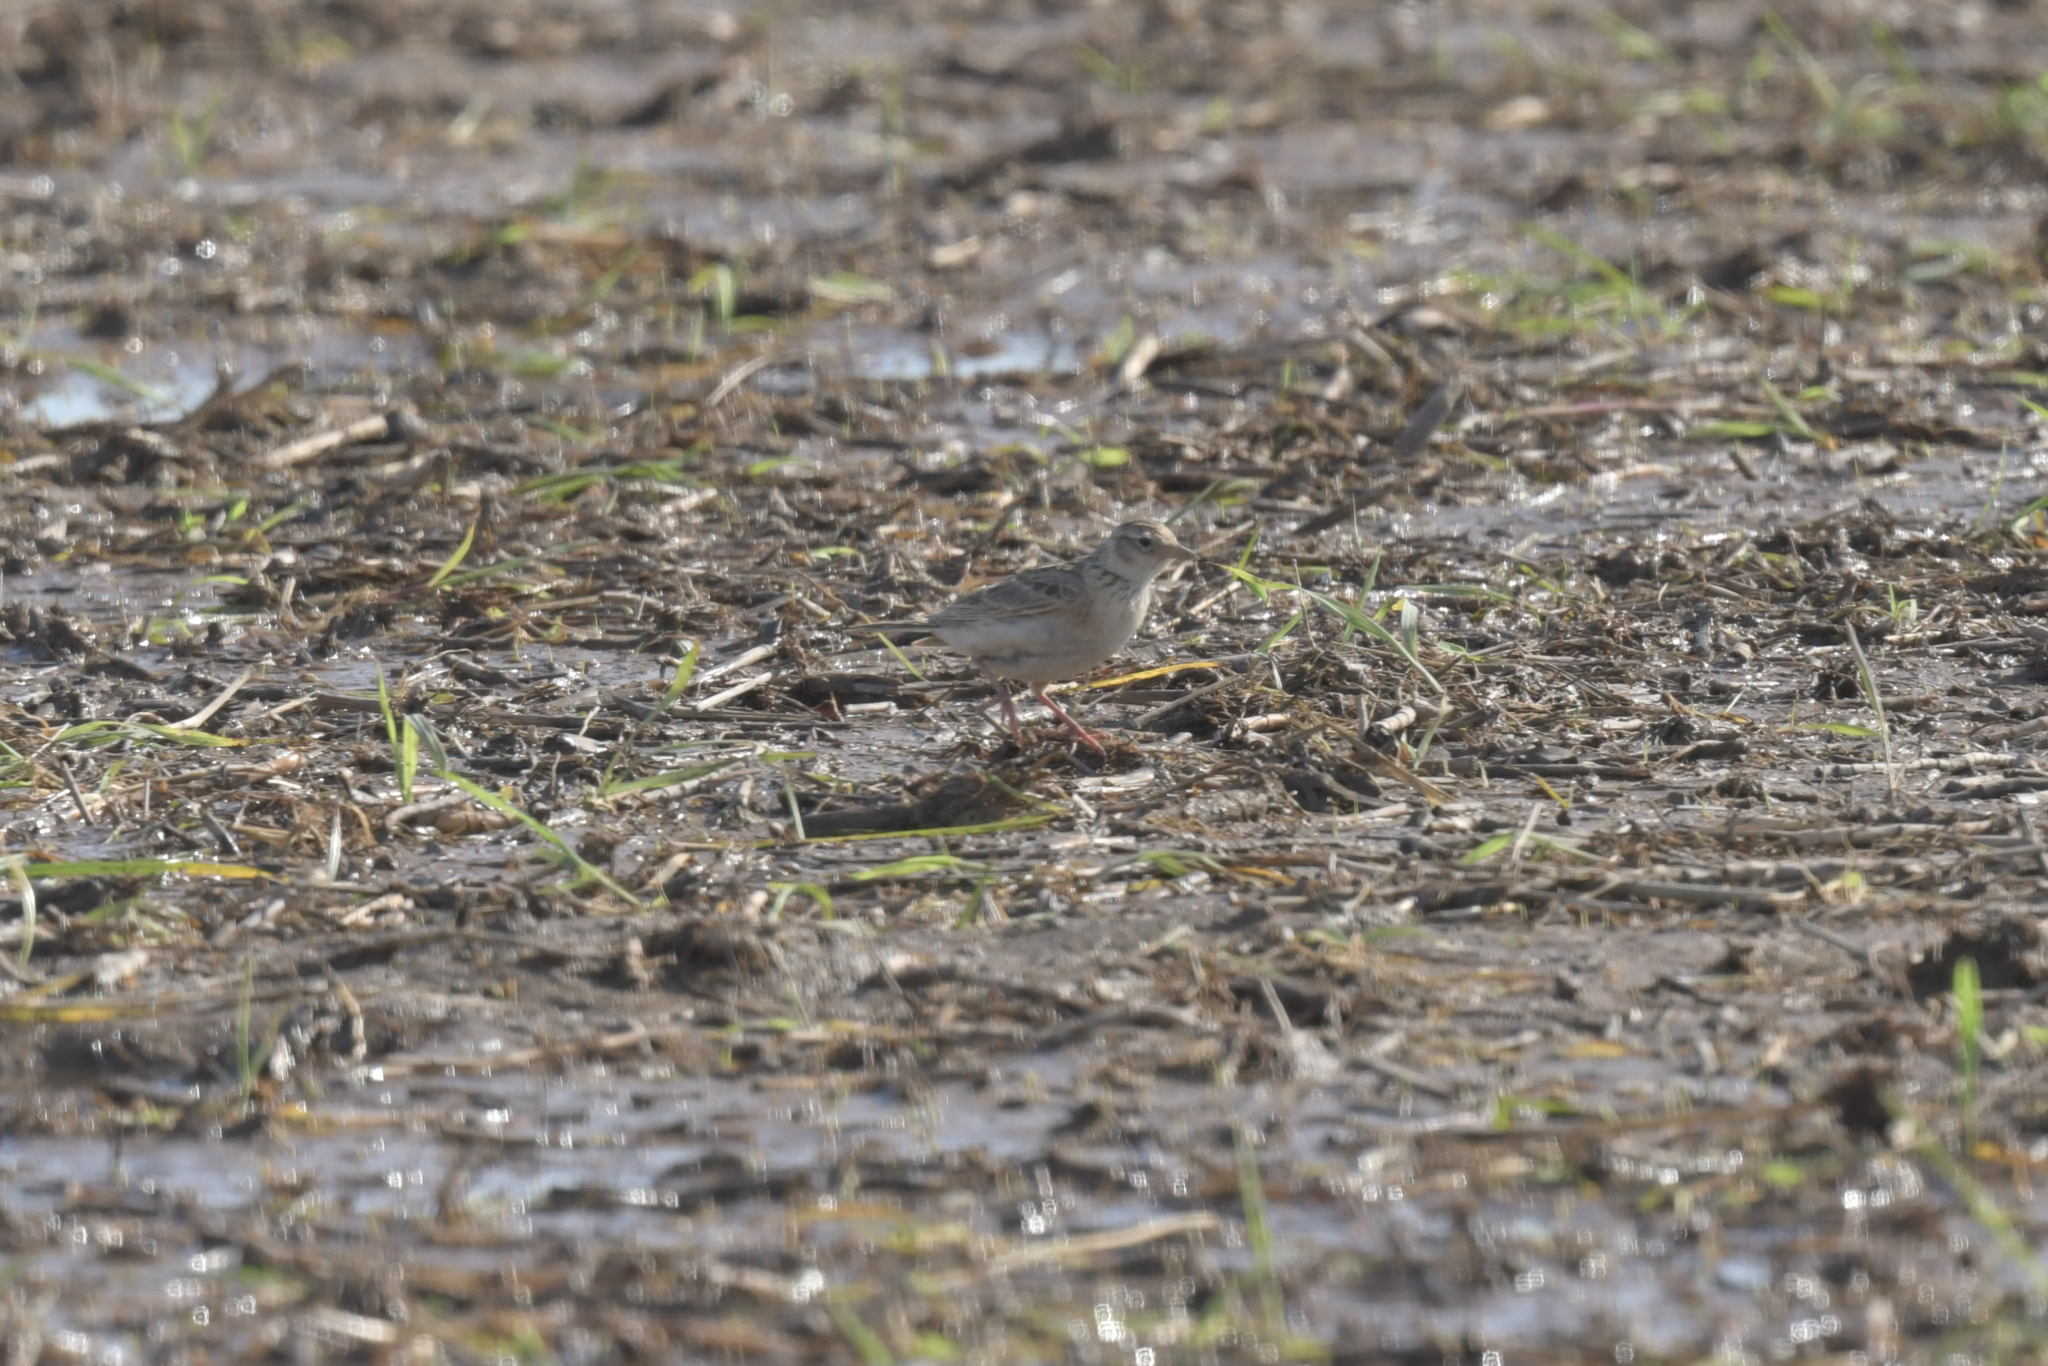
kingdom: Animalia
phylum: Chordata
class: Aves
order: Passeriformes
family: Alaudidae
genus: Alauda
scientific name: Alauda gulgula
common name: Oriental skylark
